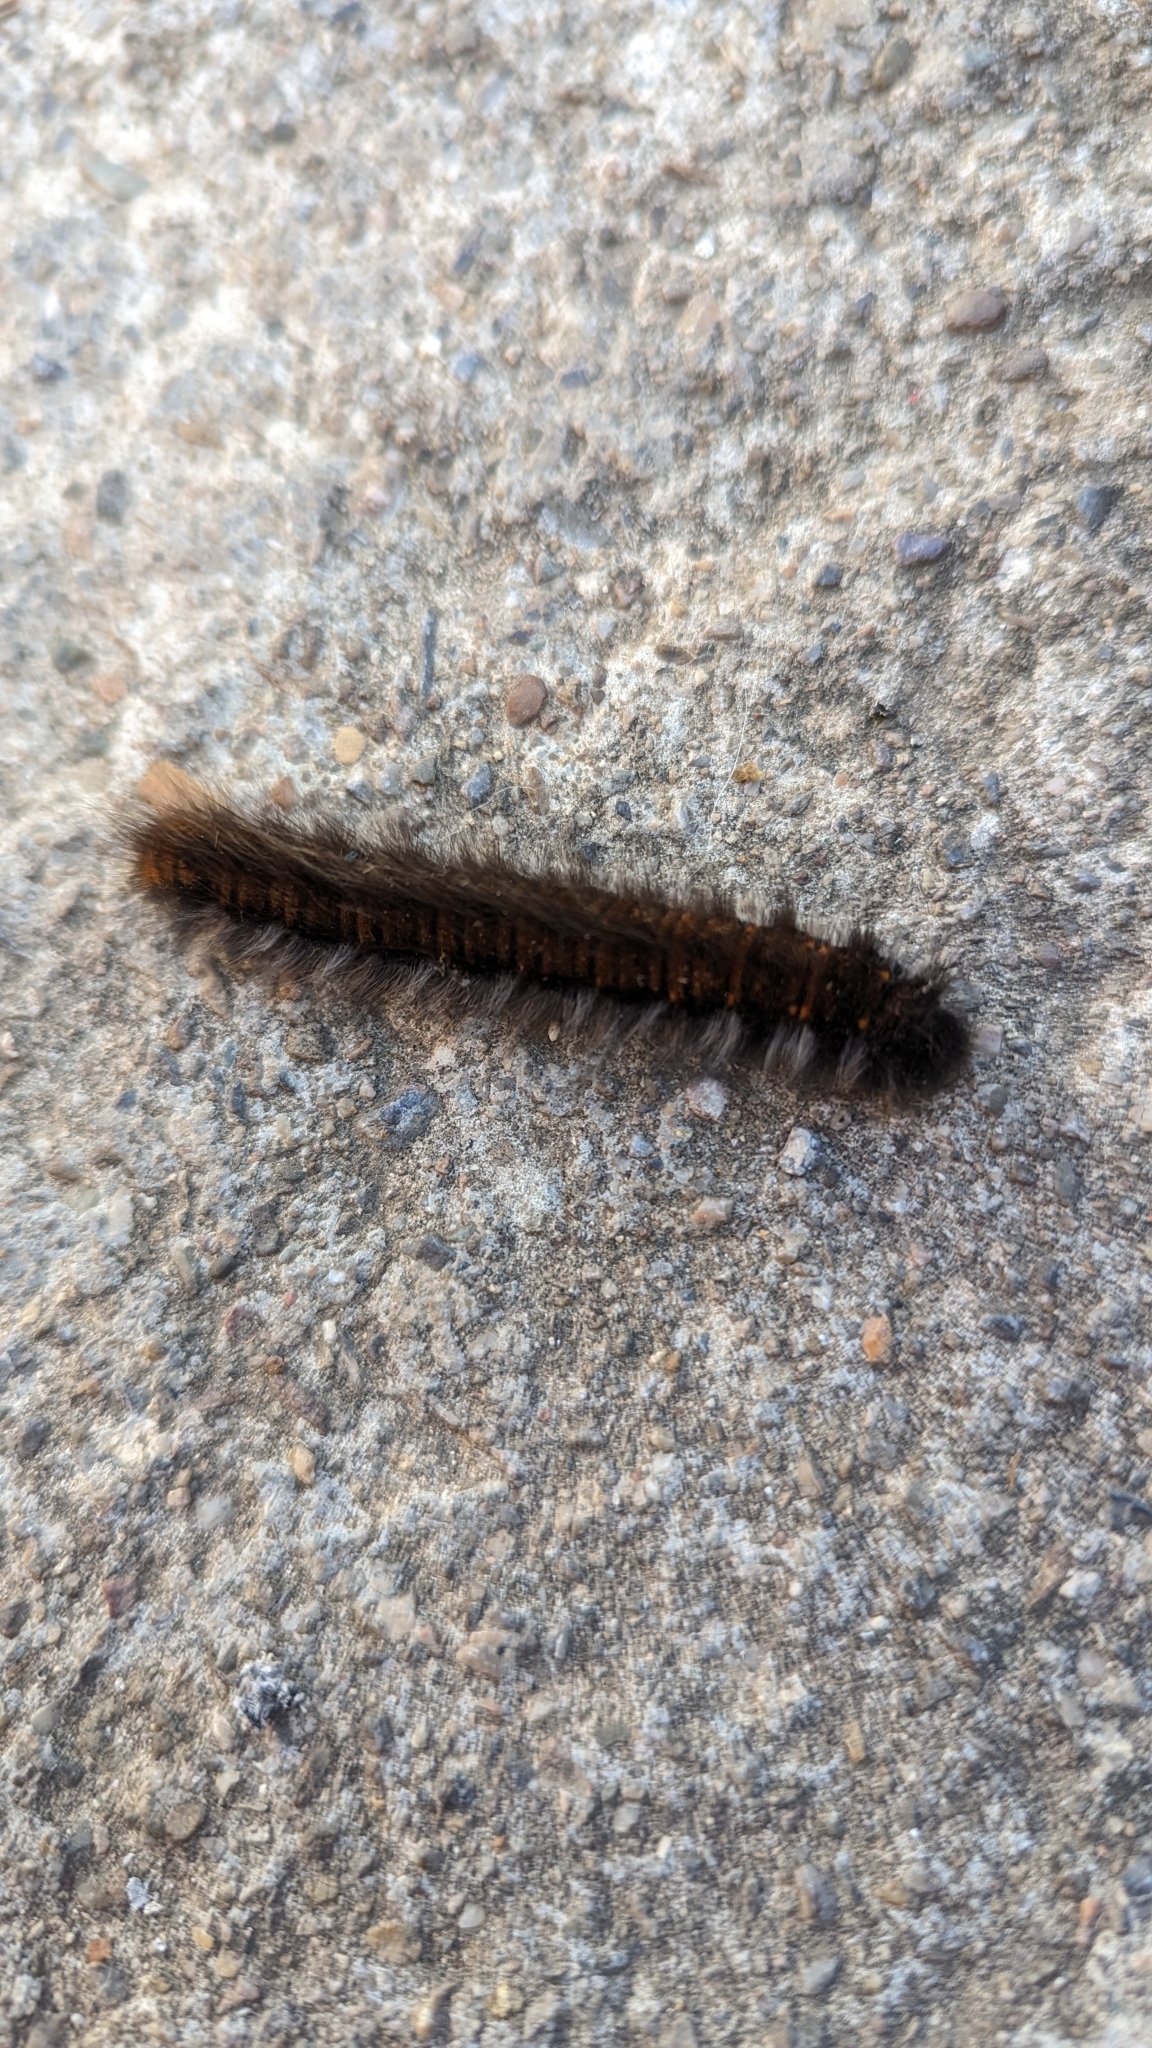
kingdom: Animalia
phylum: Arthropoda
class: Insecta
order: Lepidoptera
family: Lasiocampidae
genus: Macrothylacia
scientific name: Macrothylacia rubi
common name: Fox moth
